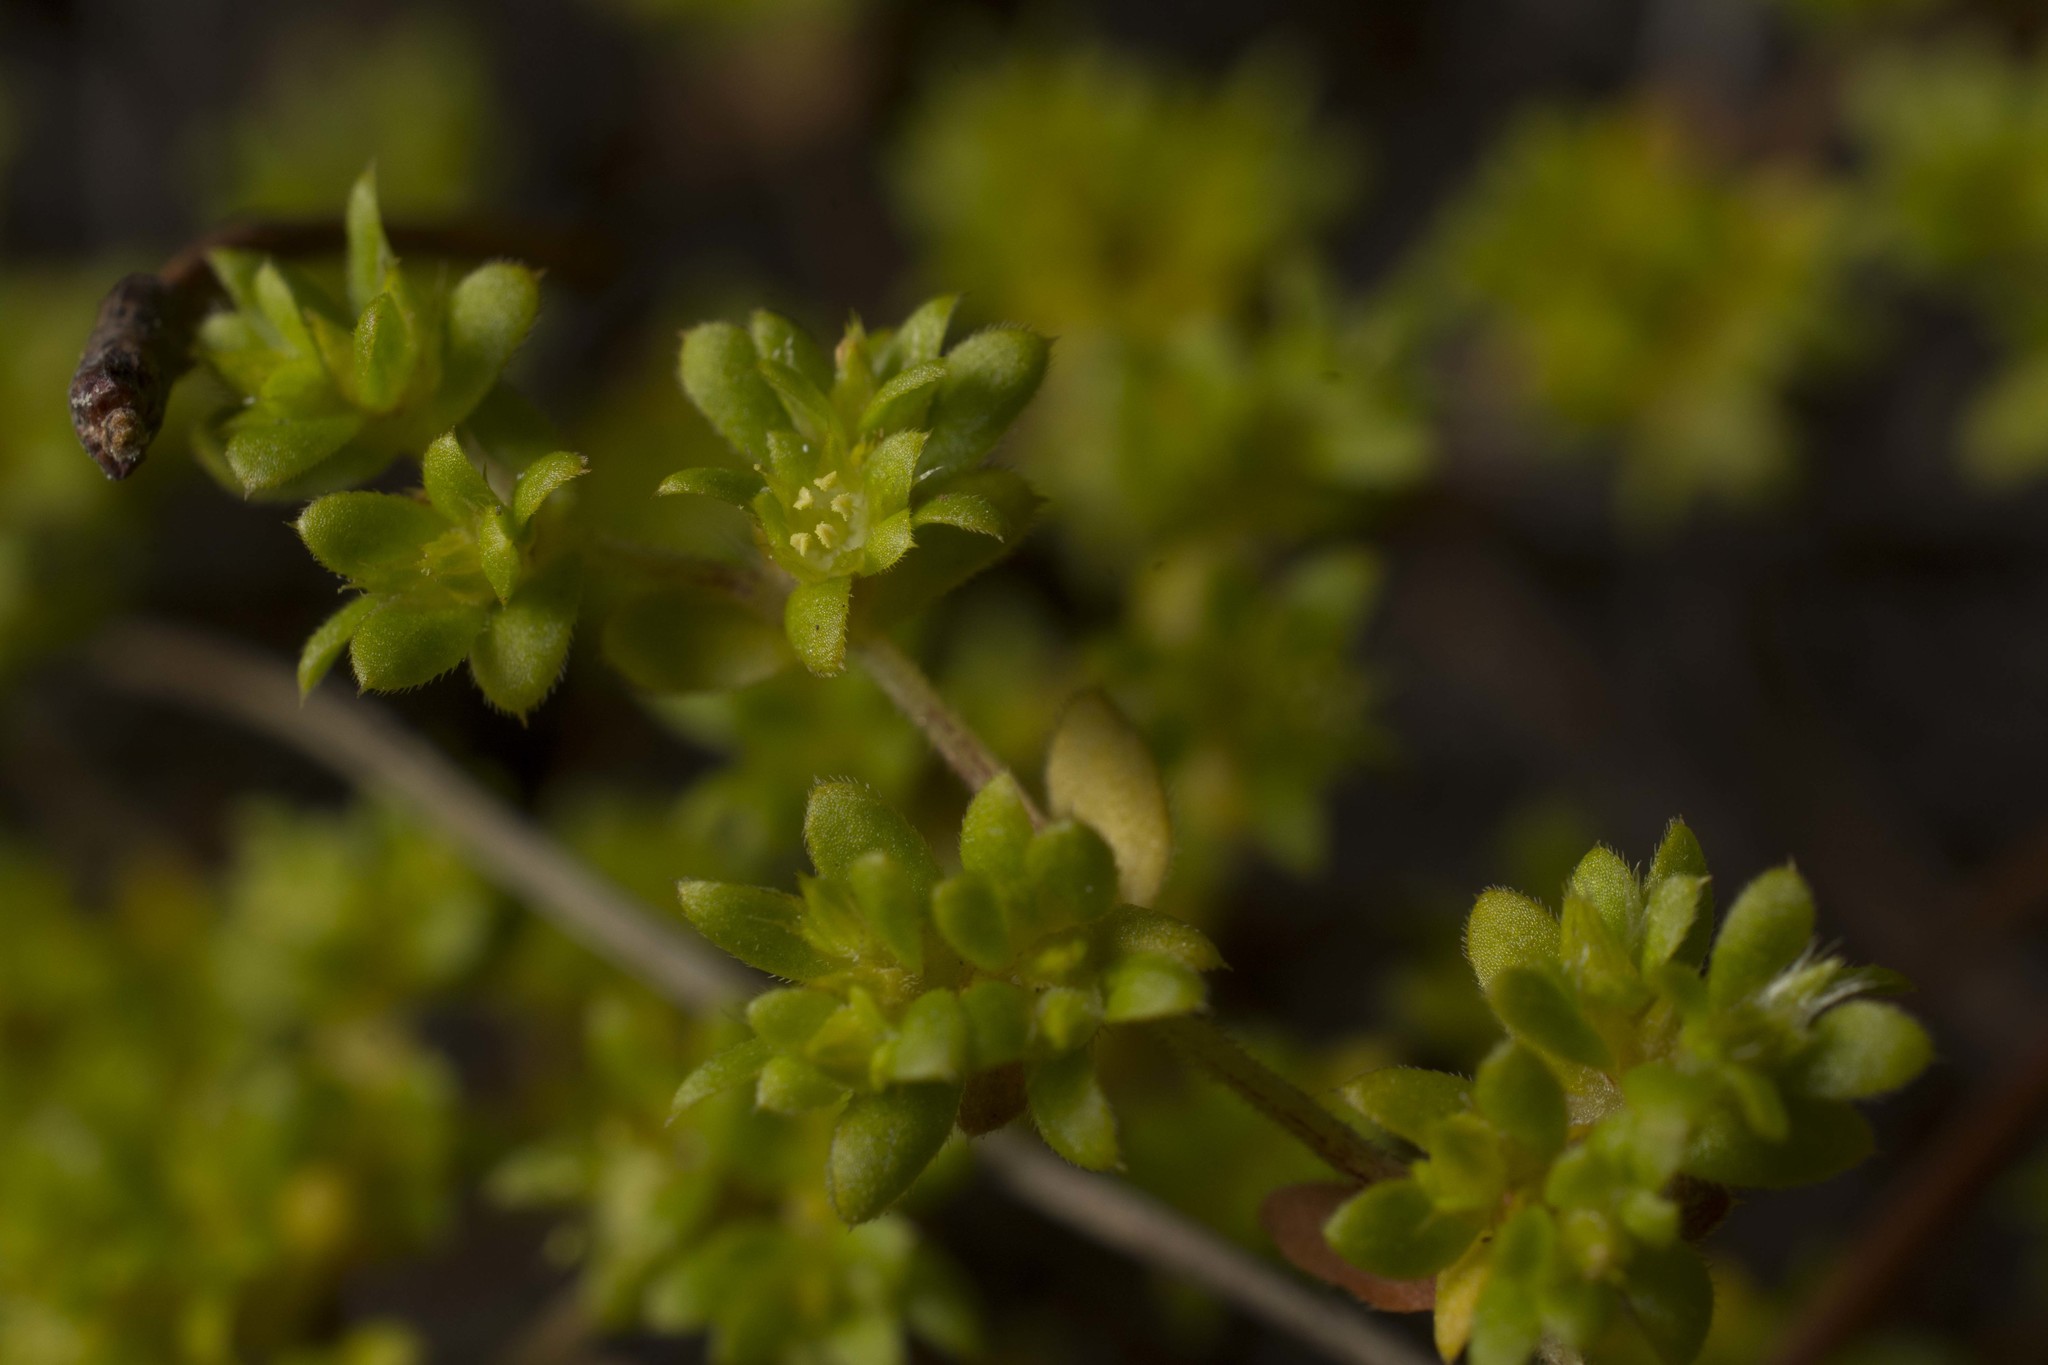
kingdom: Plantae
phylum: Tracheophyta
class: Magnoliopsida
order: Caryophyllales
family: Caryophyllaceae
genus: Paronychia
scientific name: Paronychia herniarioides
